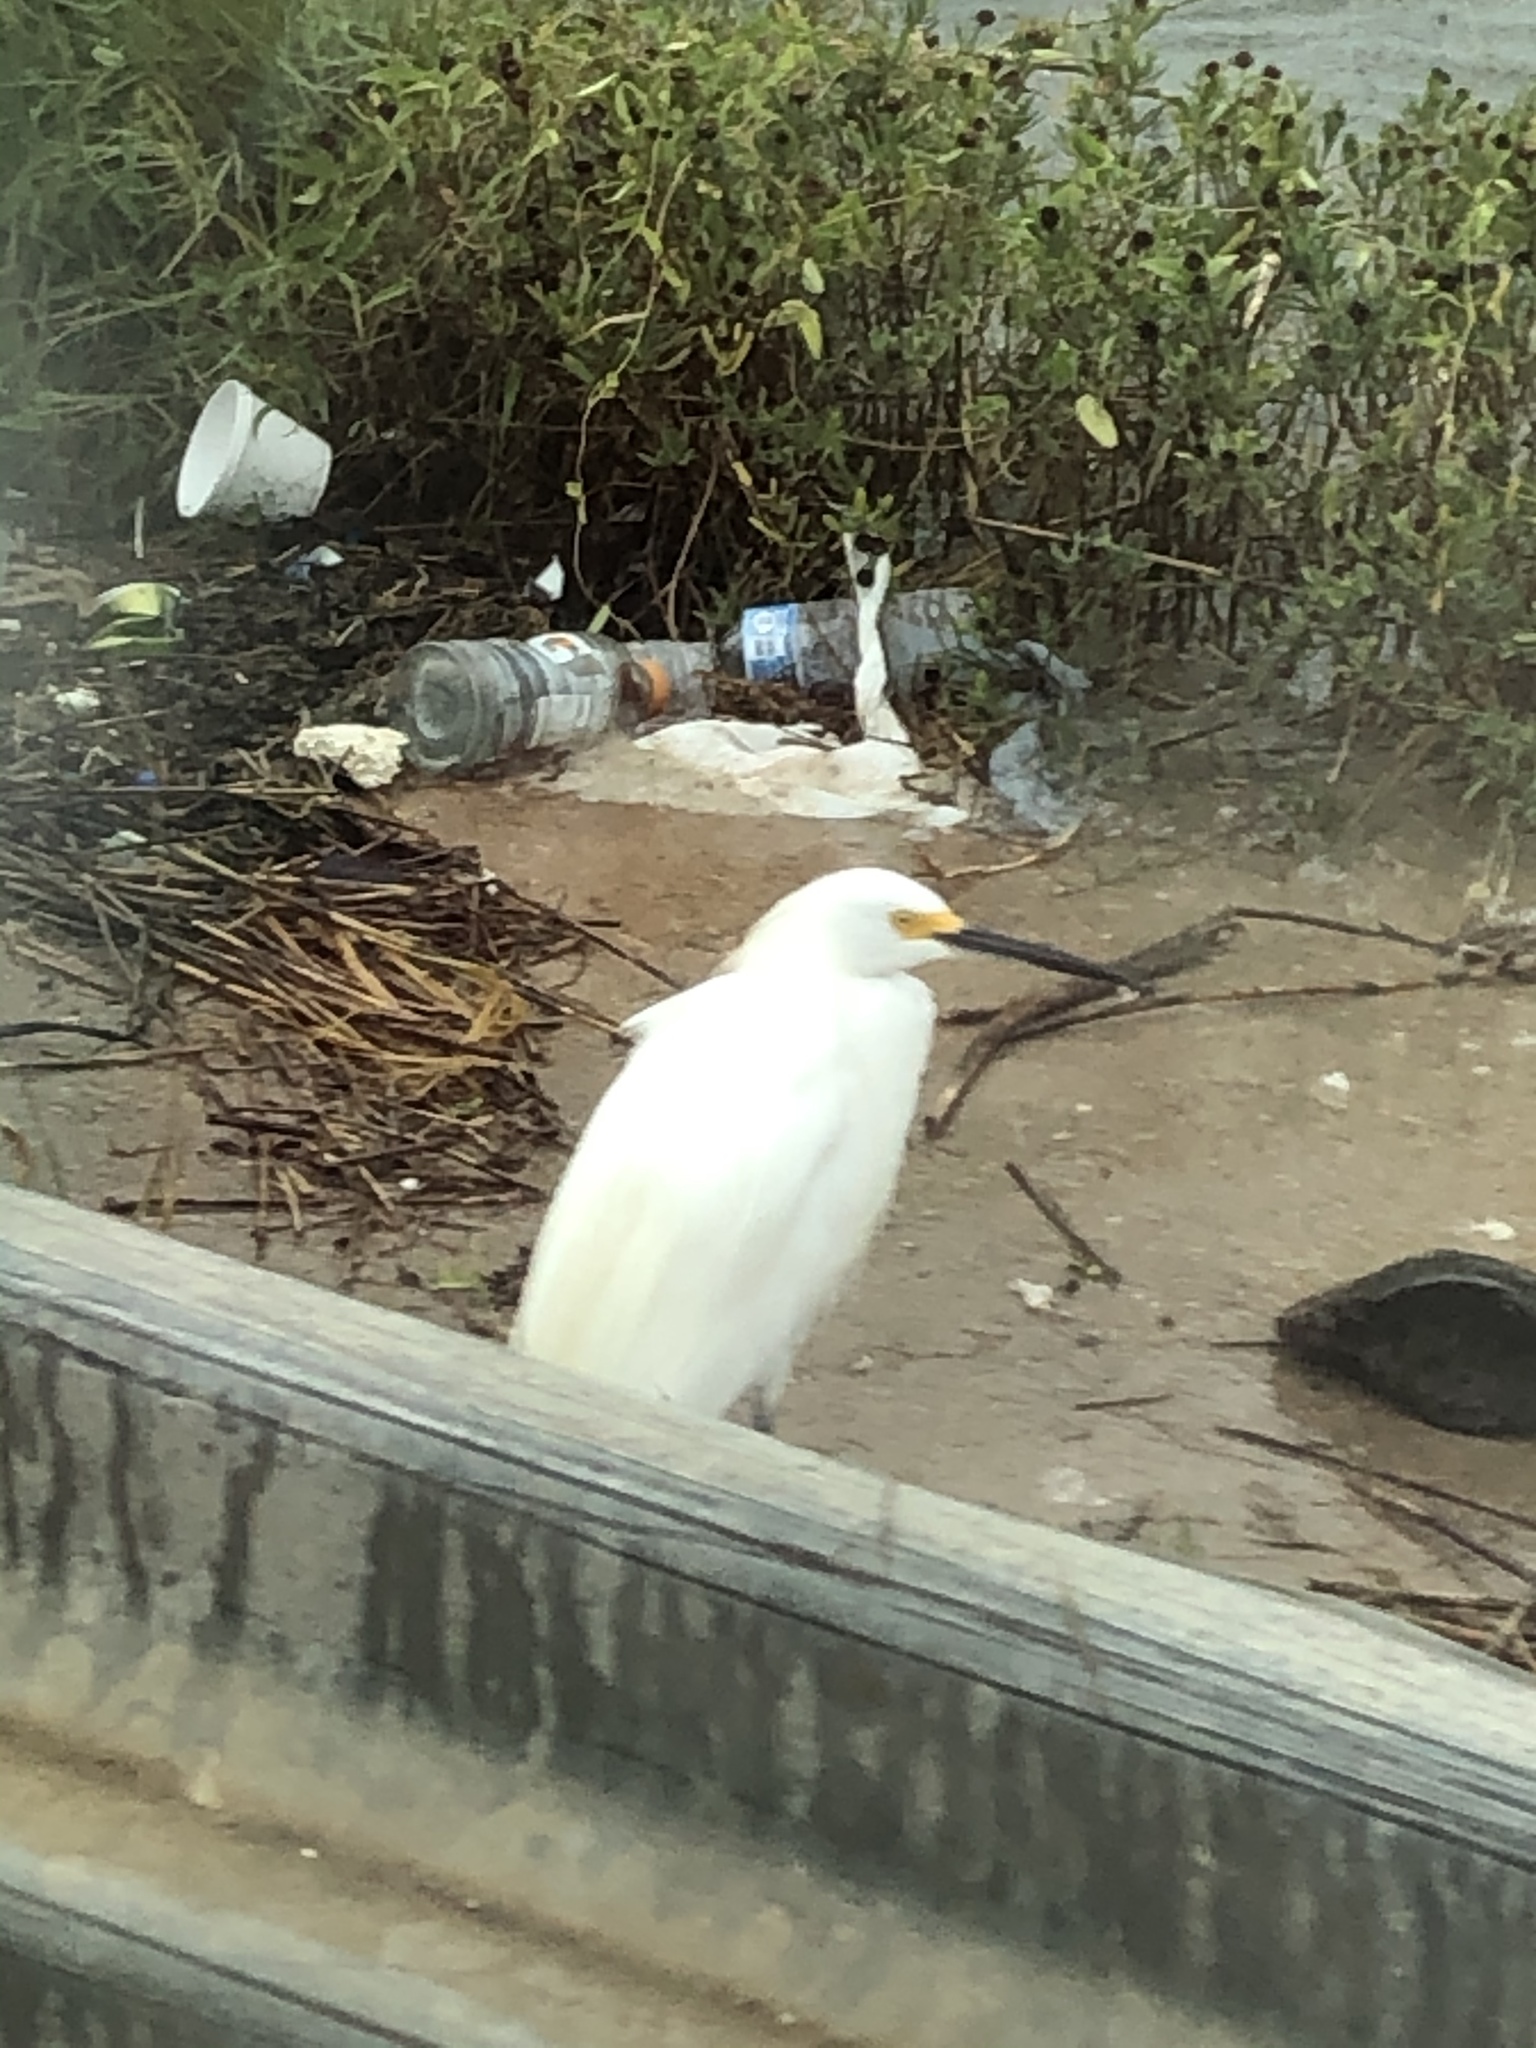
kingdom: Animalia
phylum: Chordata
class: Aves
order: Pelecaniformes
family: Ardeidae
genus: Egretta
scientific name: Egretta thula
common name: Snowy egret
